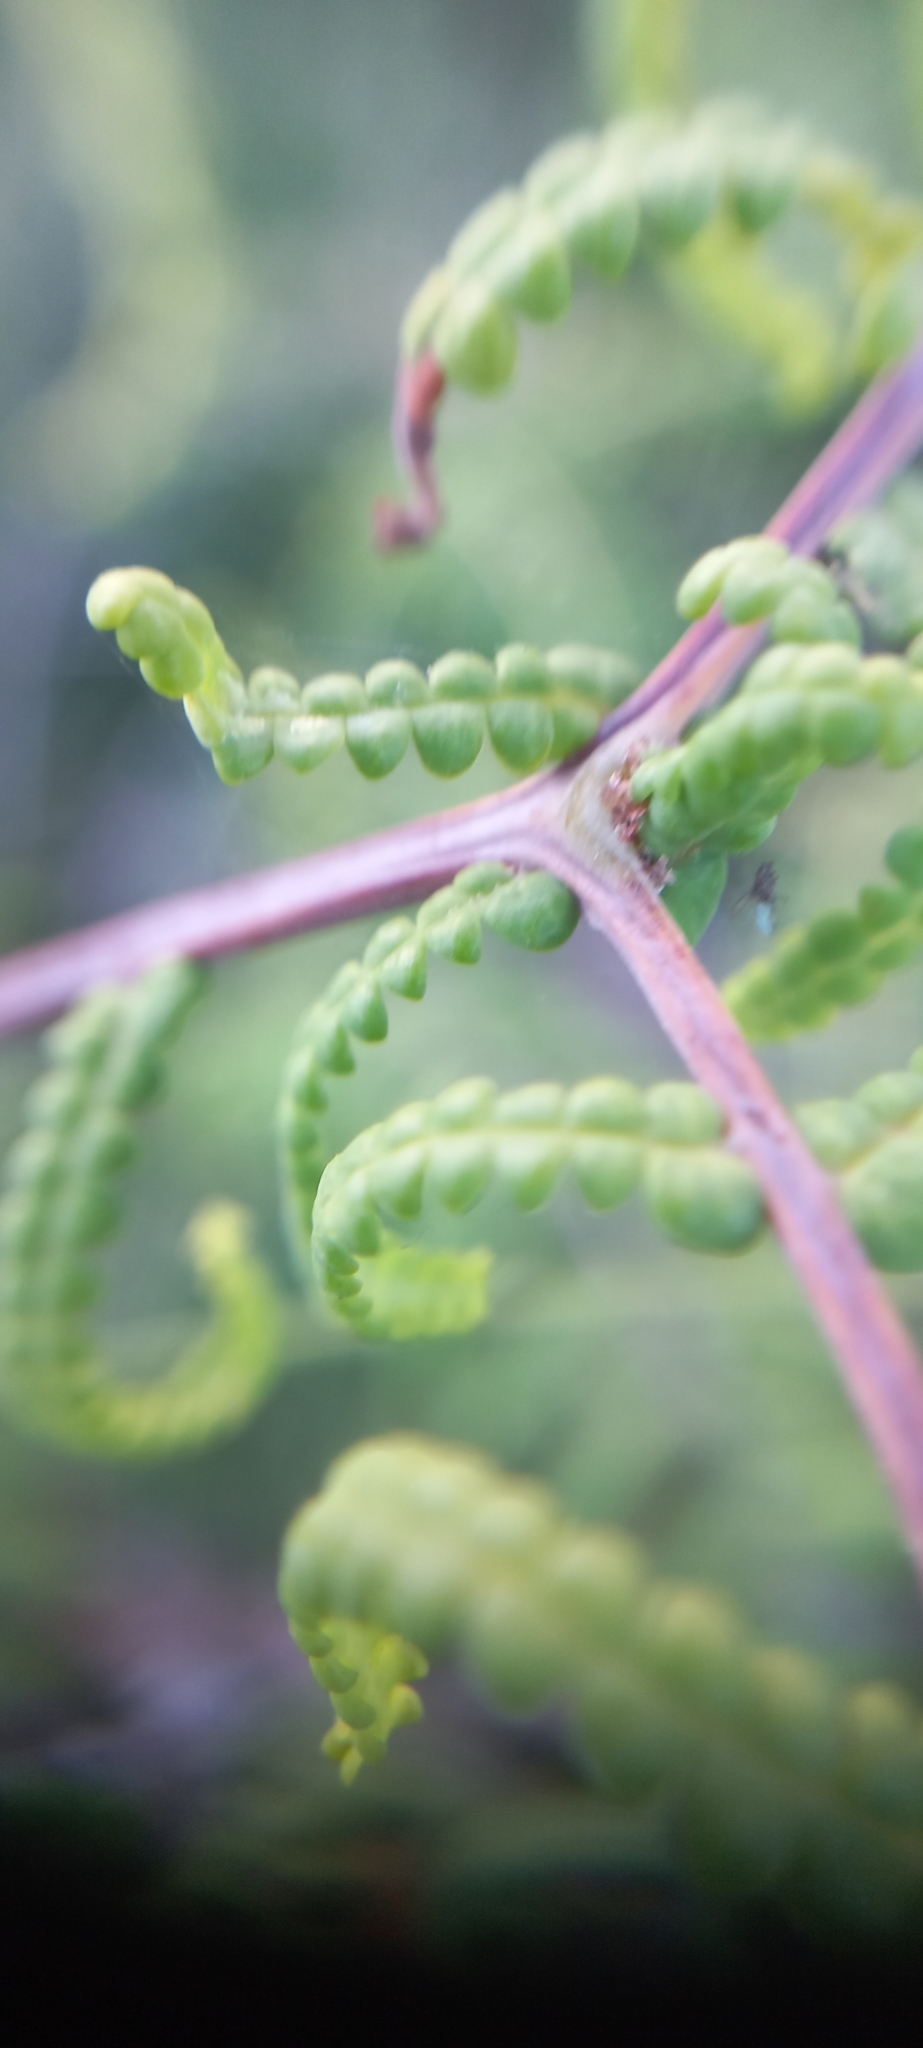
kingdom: Plantae
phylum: Tracheophyta
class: Polypodiopsida
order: Gleicheniales
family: Gleicheniaceae
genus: Gleichenia
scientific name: Gleichenia polypodioides
